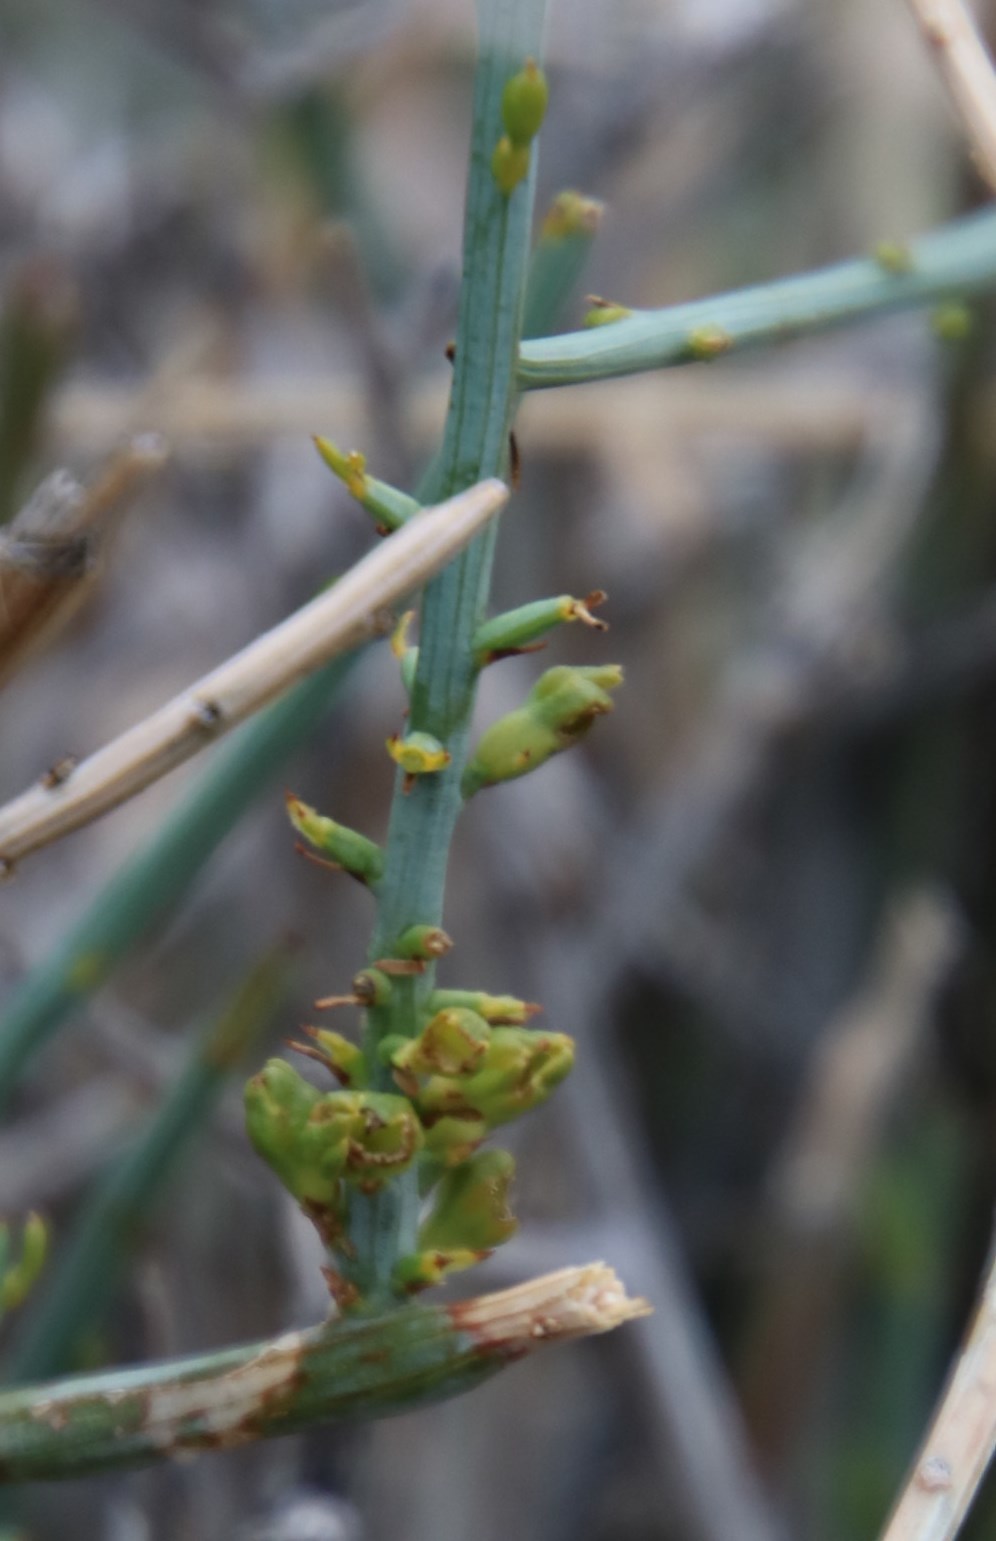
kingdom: Plantae
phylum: Tracheophyta
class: Magnoliopsida
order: Santalales
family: Thesiaceae
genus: Lacomucinaea
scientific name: Lacomucinaea lineata
